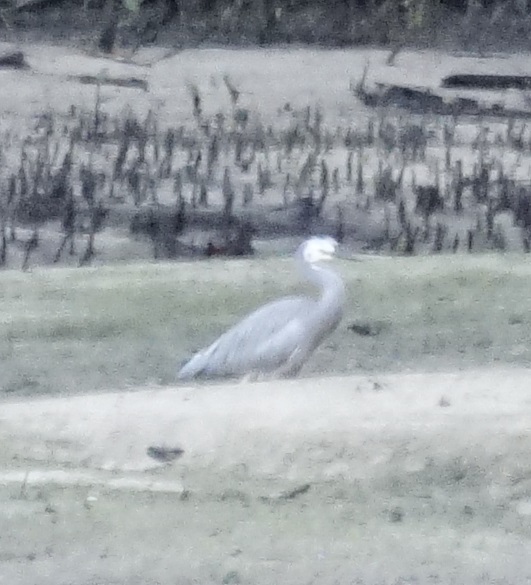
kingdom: Animalia
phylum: Chordata
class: Aves
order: Pelecaniformes
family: Ardeidae
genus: Egretta
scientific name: Egretta novaehollandiae
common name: White-faced heron
